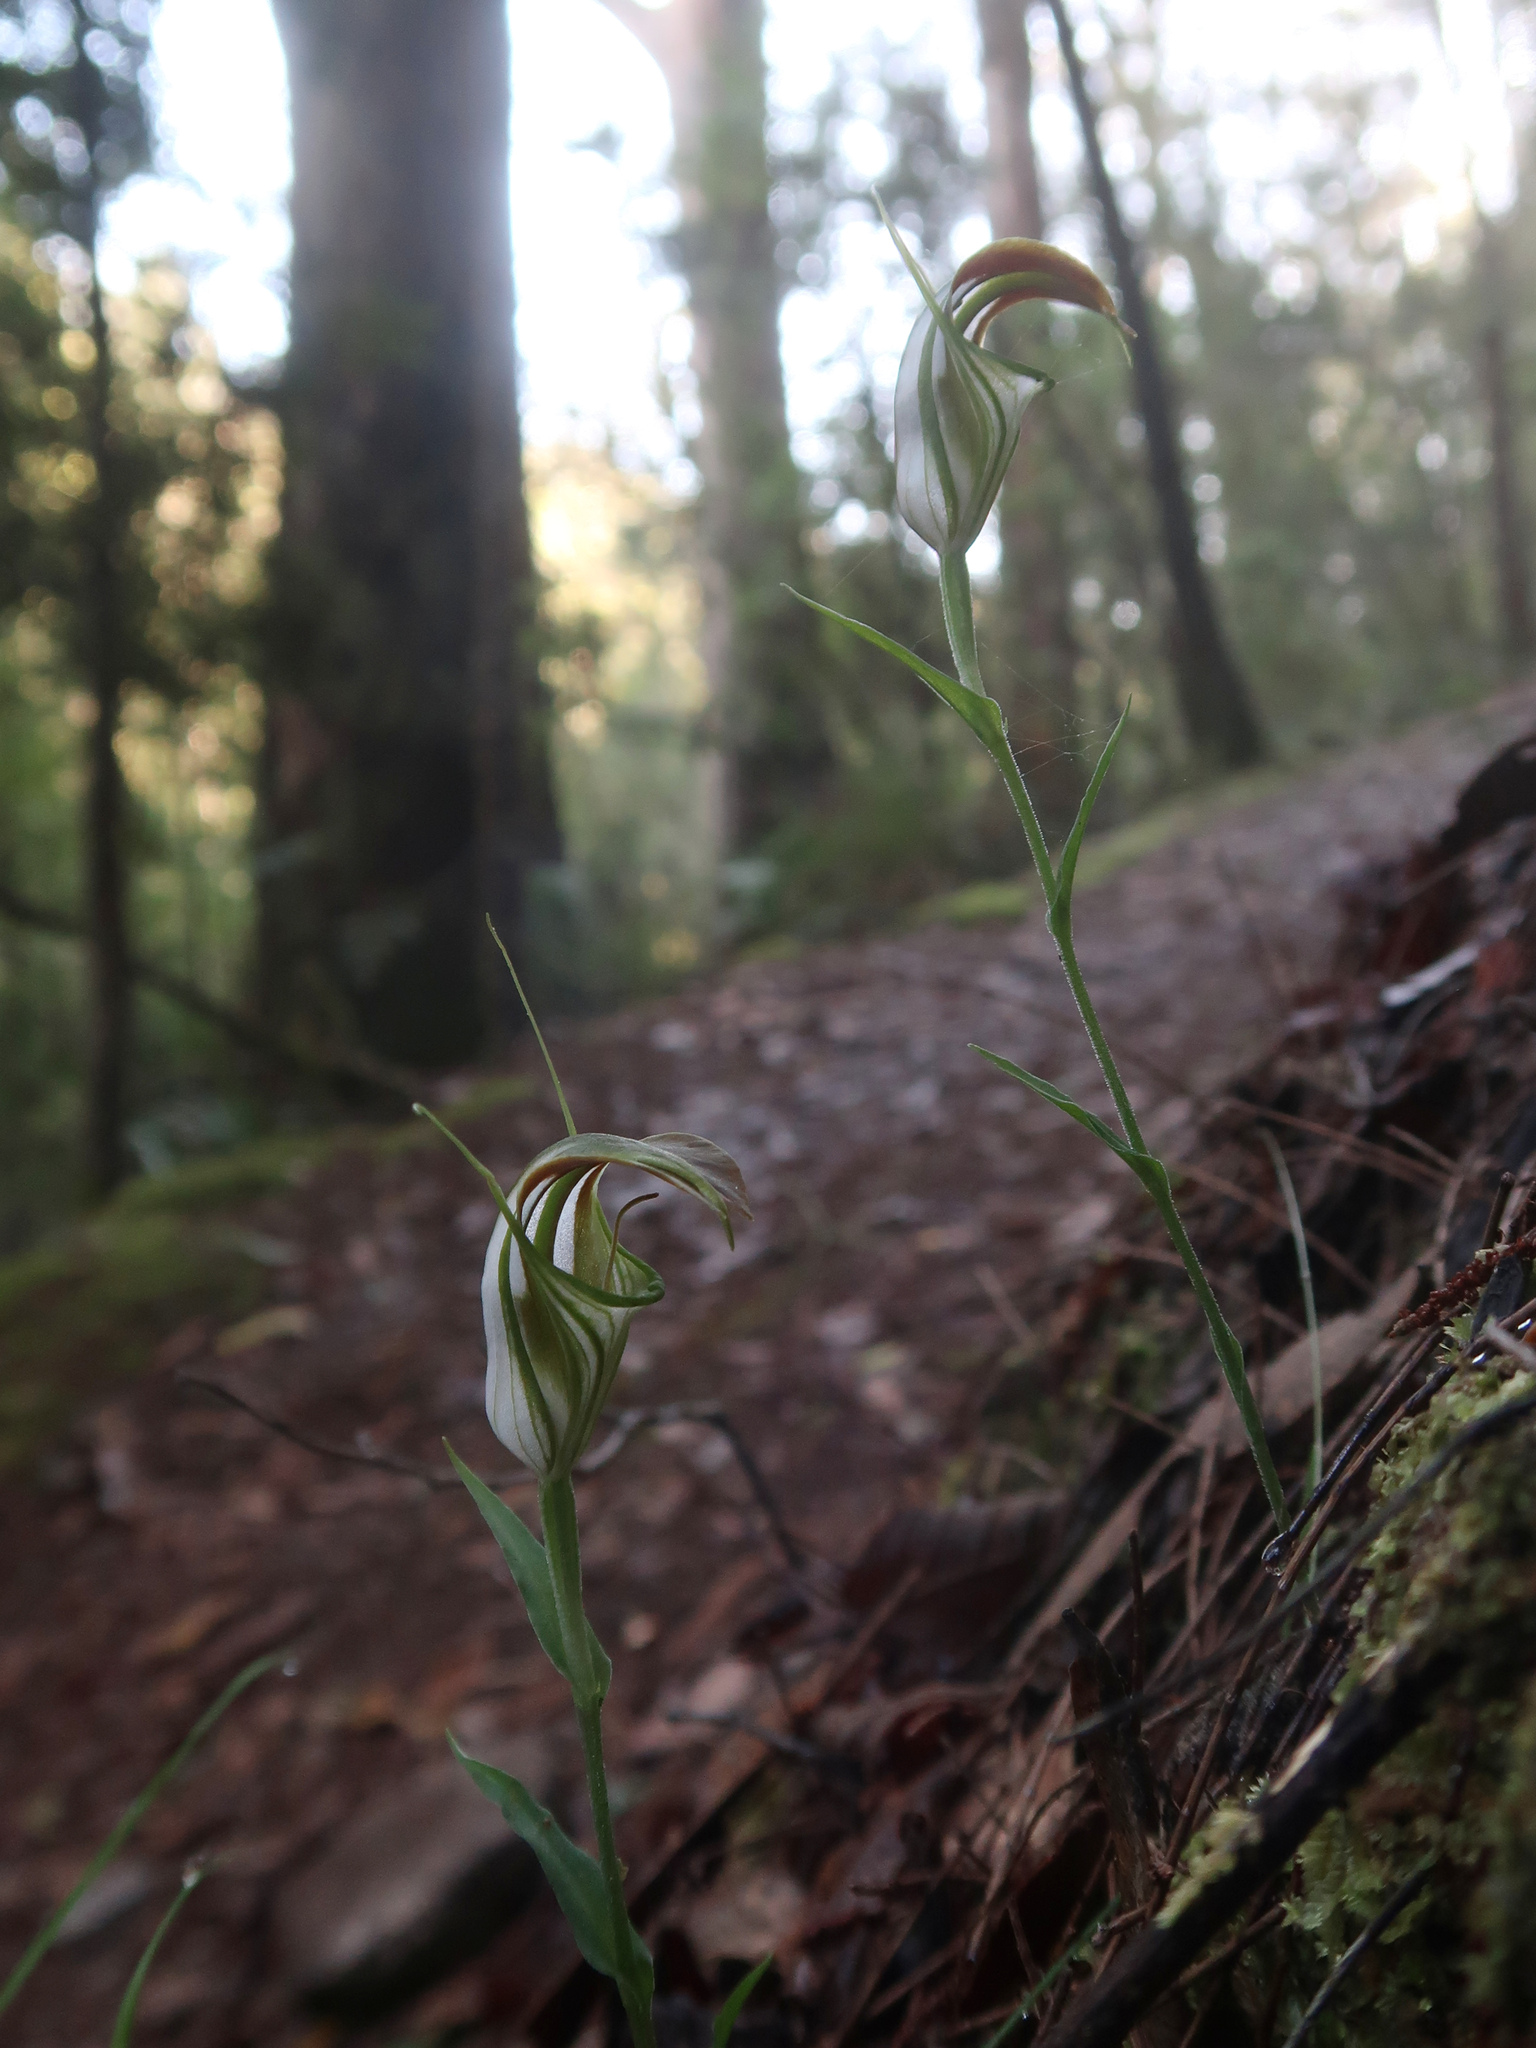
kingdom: Plantae
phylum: Tracheophyta
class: Liliopsida
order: Asparagales
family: Orchidaceae
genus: Pterostylis
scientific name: Pterostylis grandiflora
